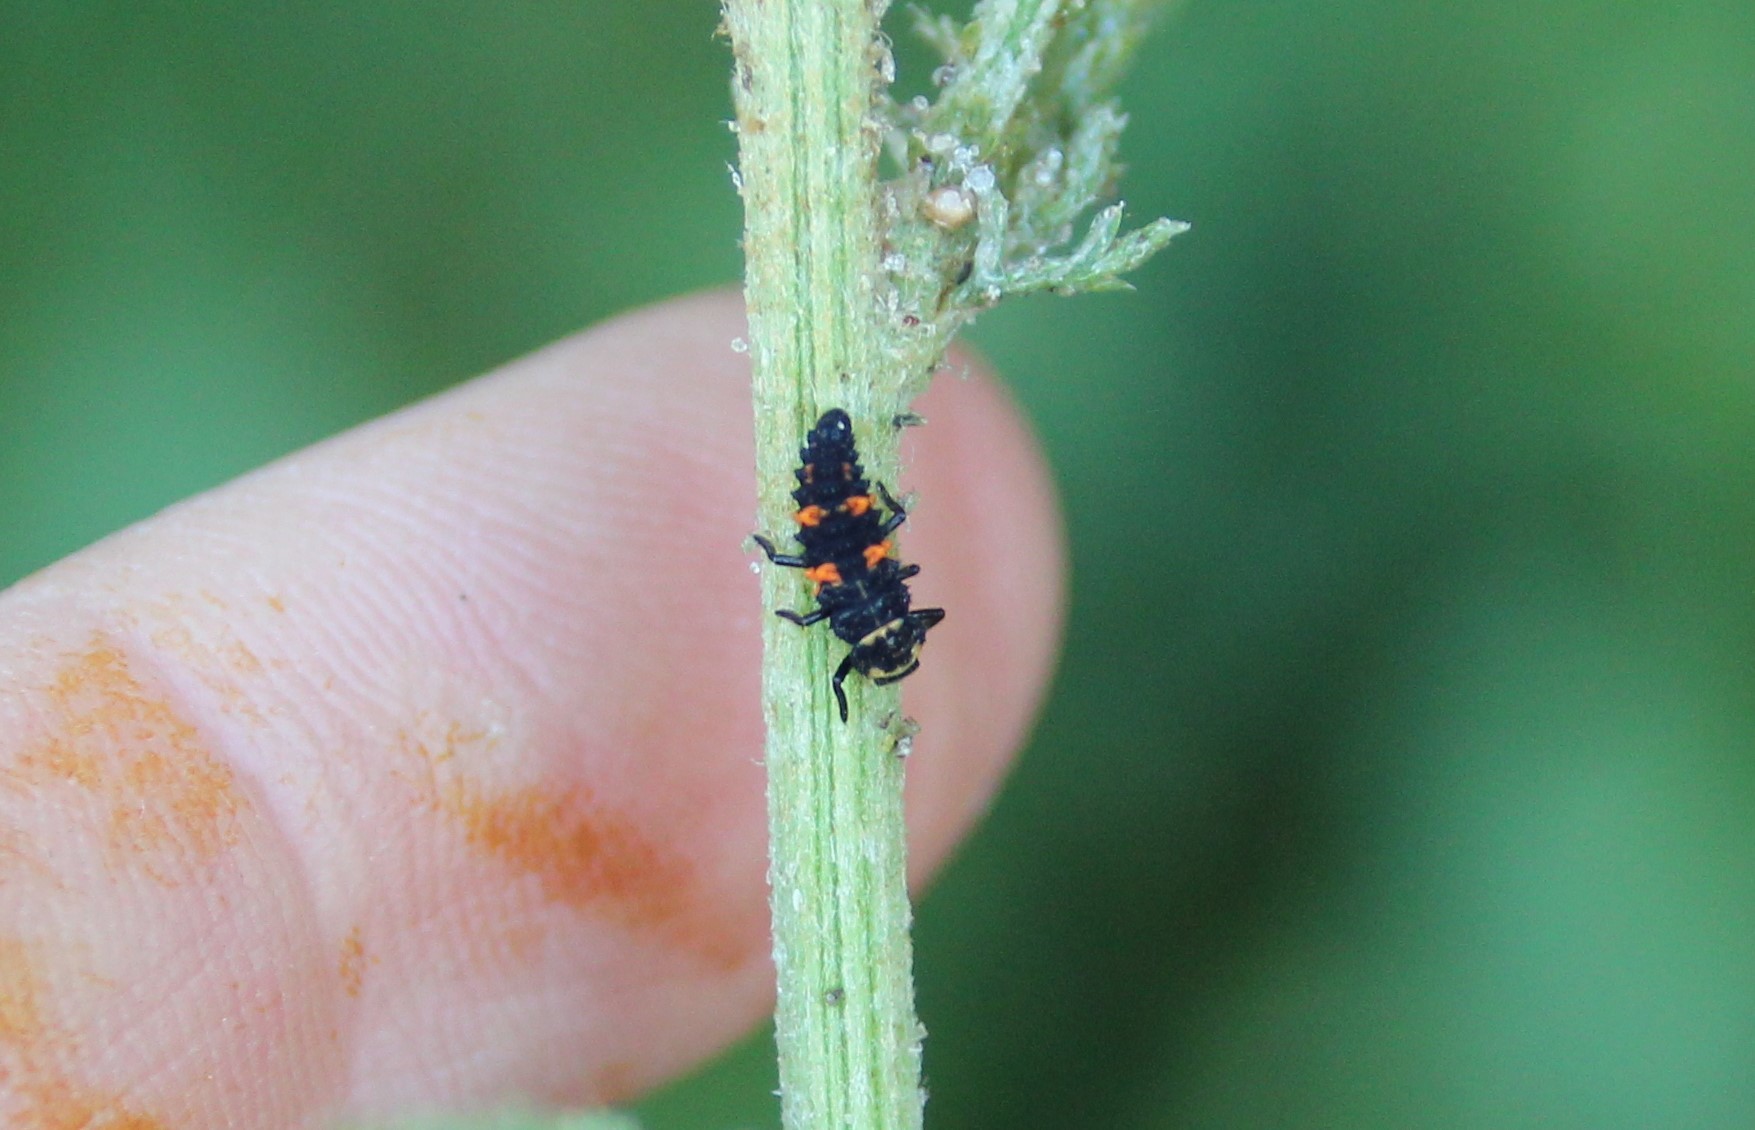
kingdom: Animalia
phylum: Arthropoda
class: Insecta
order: Coleoptera
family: Coccinellidae
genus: Hippodamia
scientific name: Hippodamia convergens
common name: Convergent lady beetle
